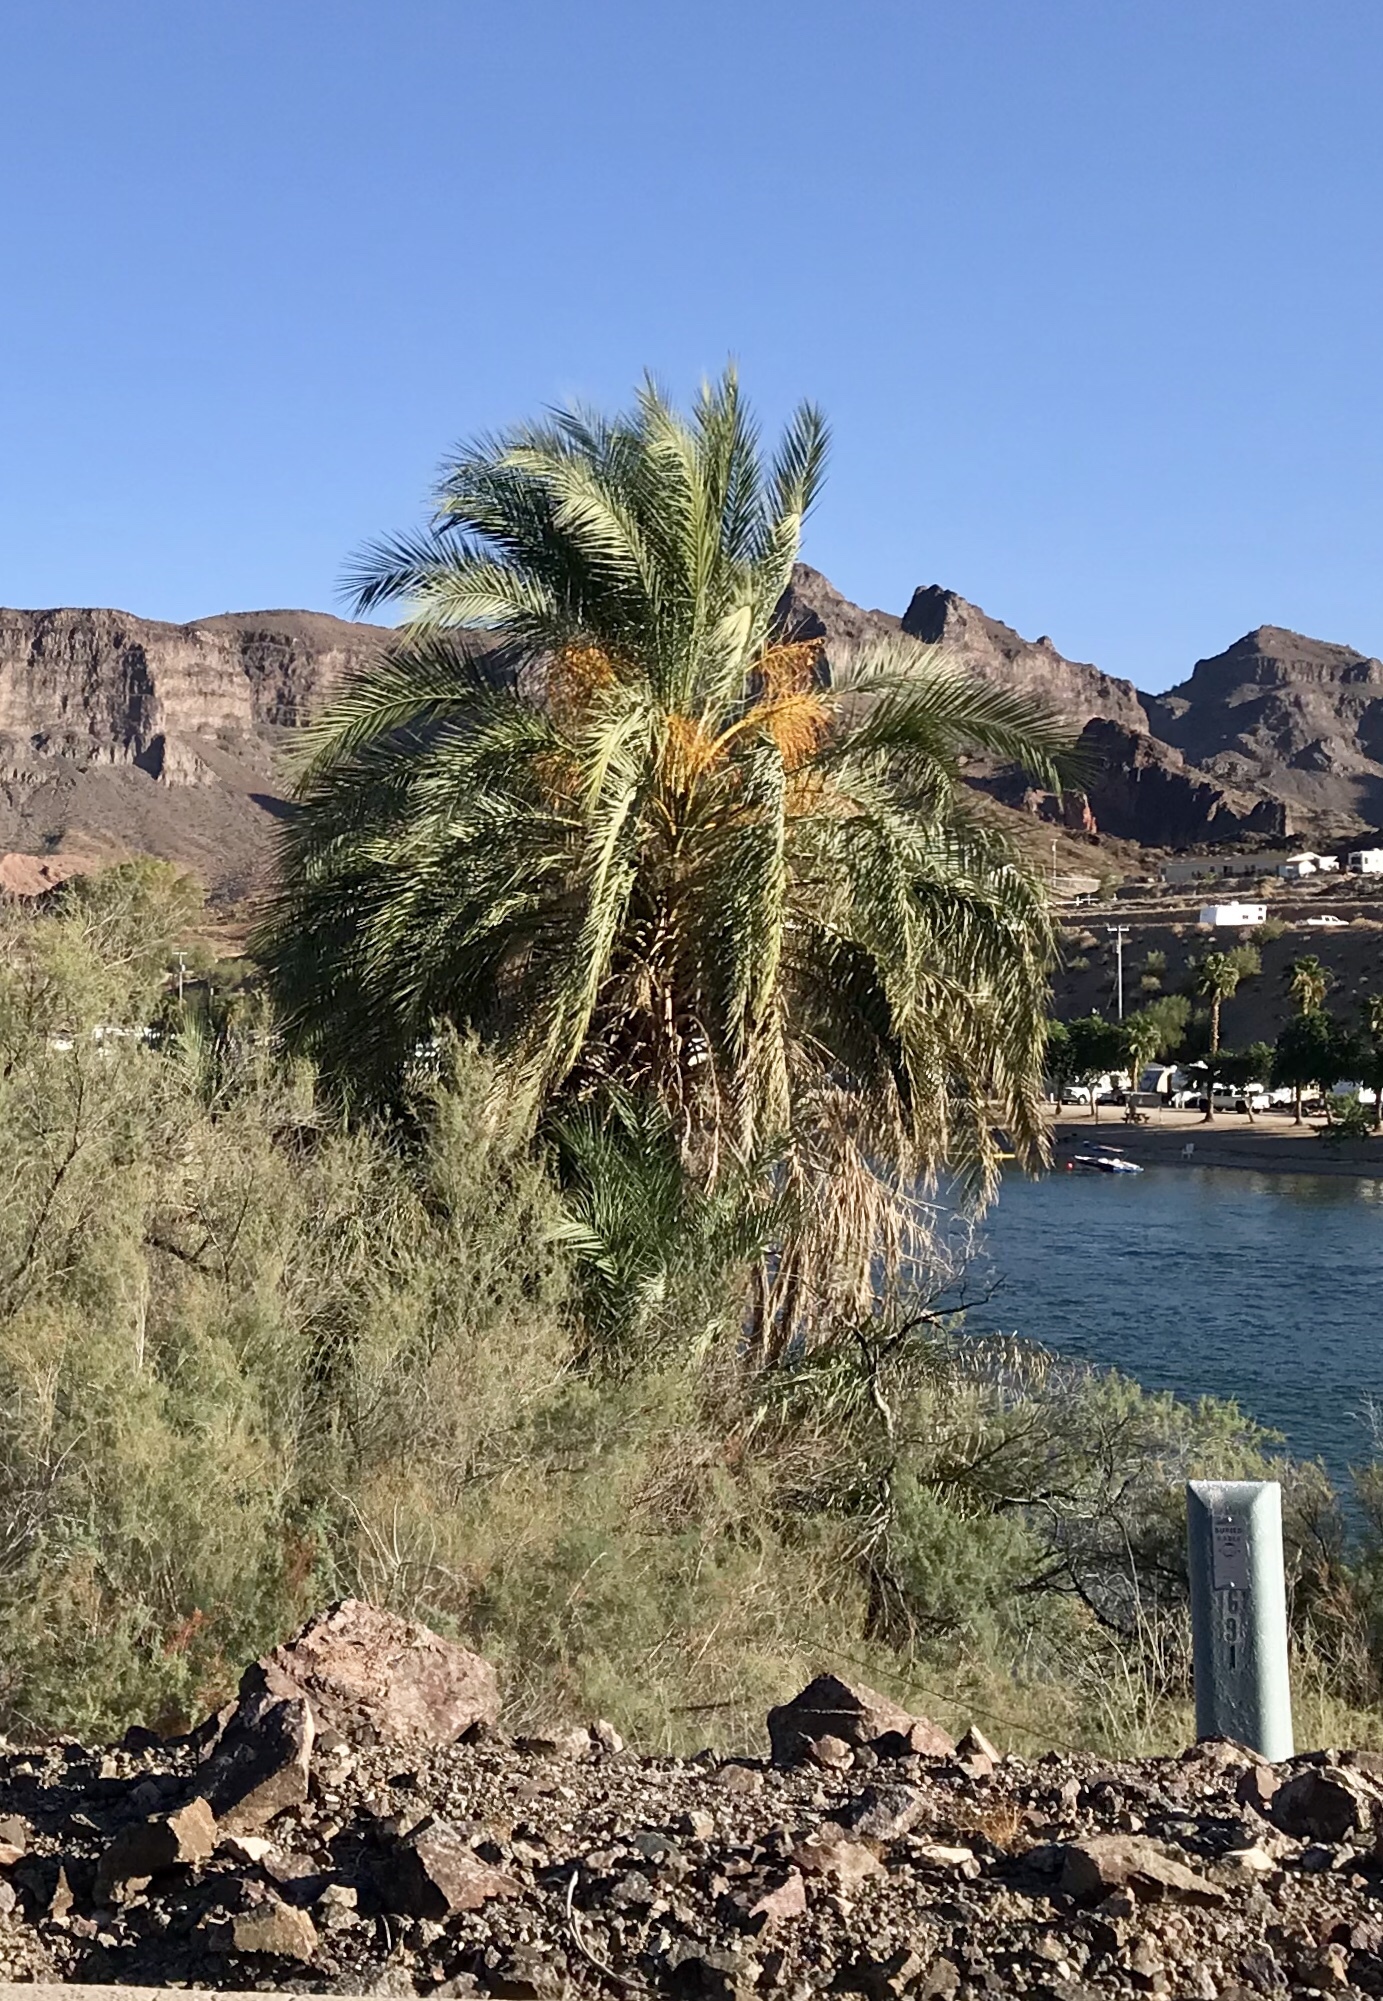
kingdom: Plantae
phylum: Tracheophyta
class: Liliopsida
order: Arecales
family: Arecaceae
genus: Phoenix
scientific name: Phoenix dactylifera
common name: Date palm
